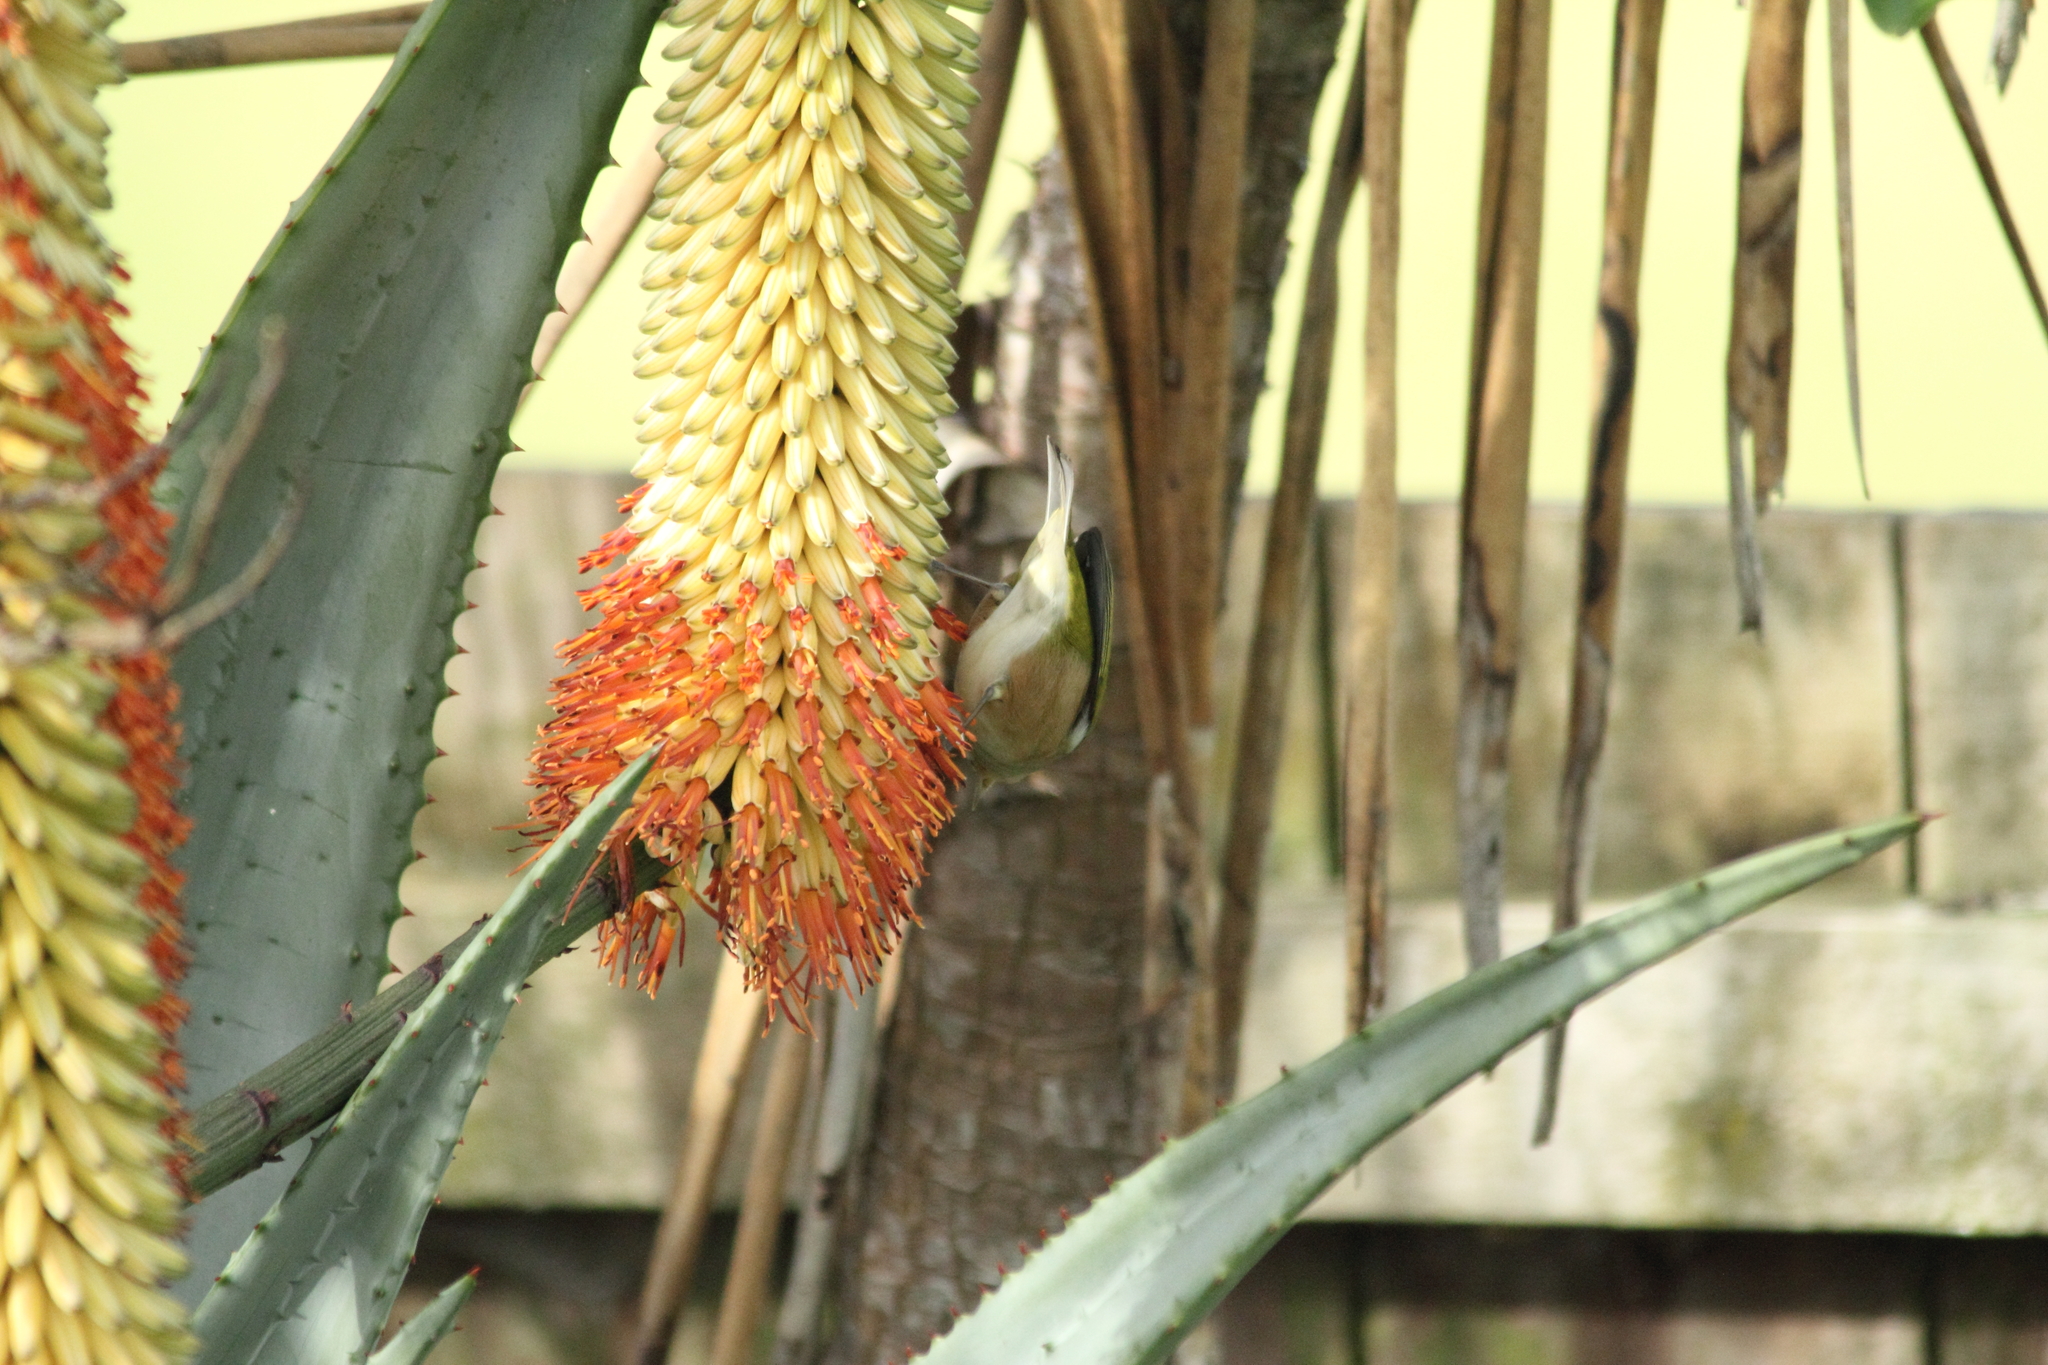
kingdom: Animalia
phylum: Chordata
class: Aves
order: Passeriformes
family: Zosteropidae
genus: Zosterops
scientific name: Zosterops lateralis
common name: Silvereye
